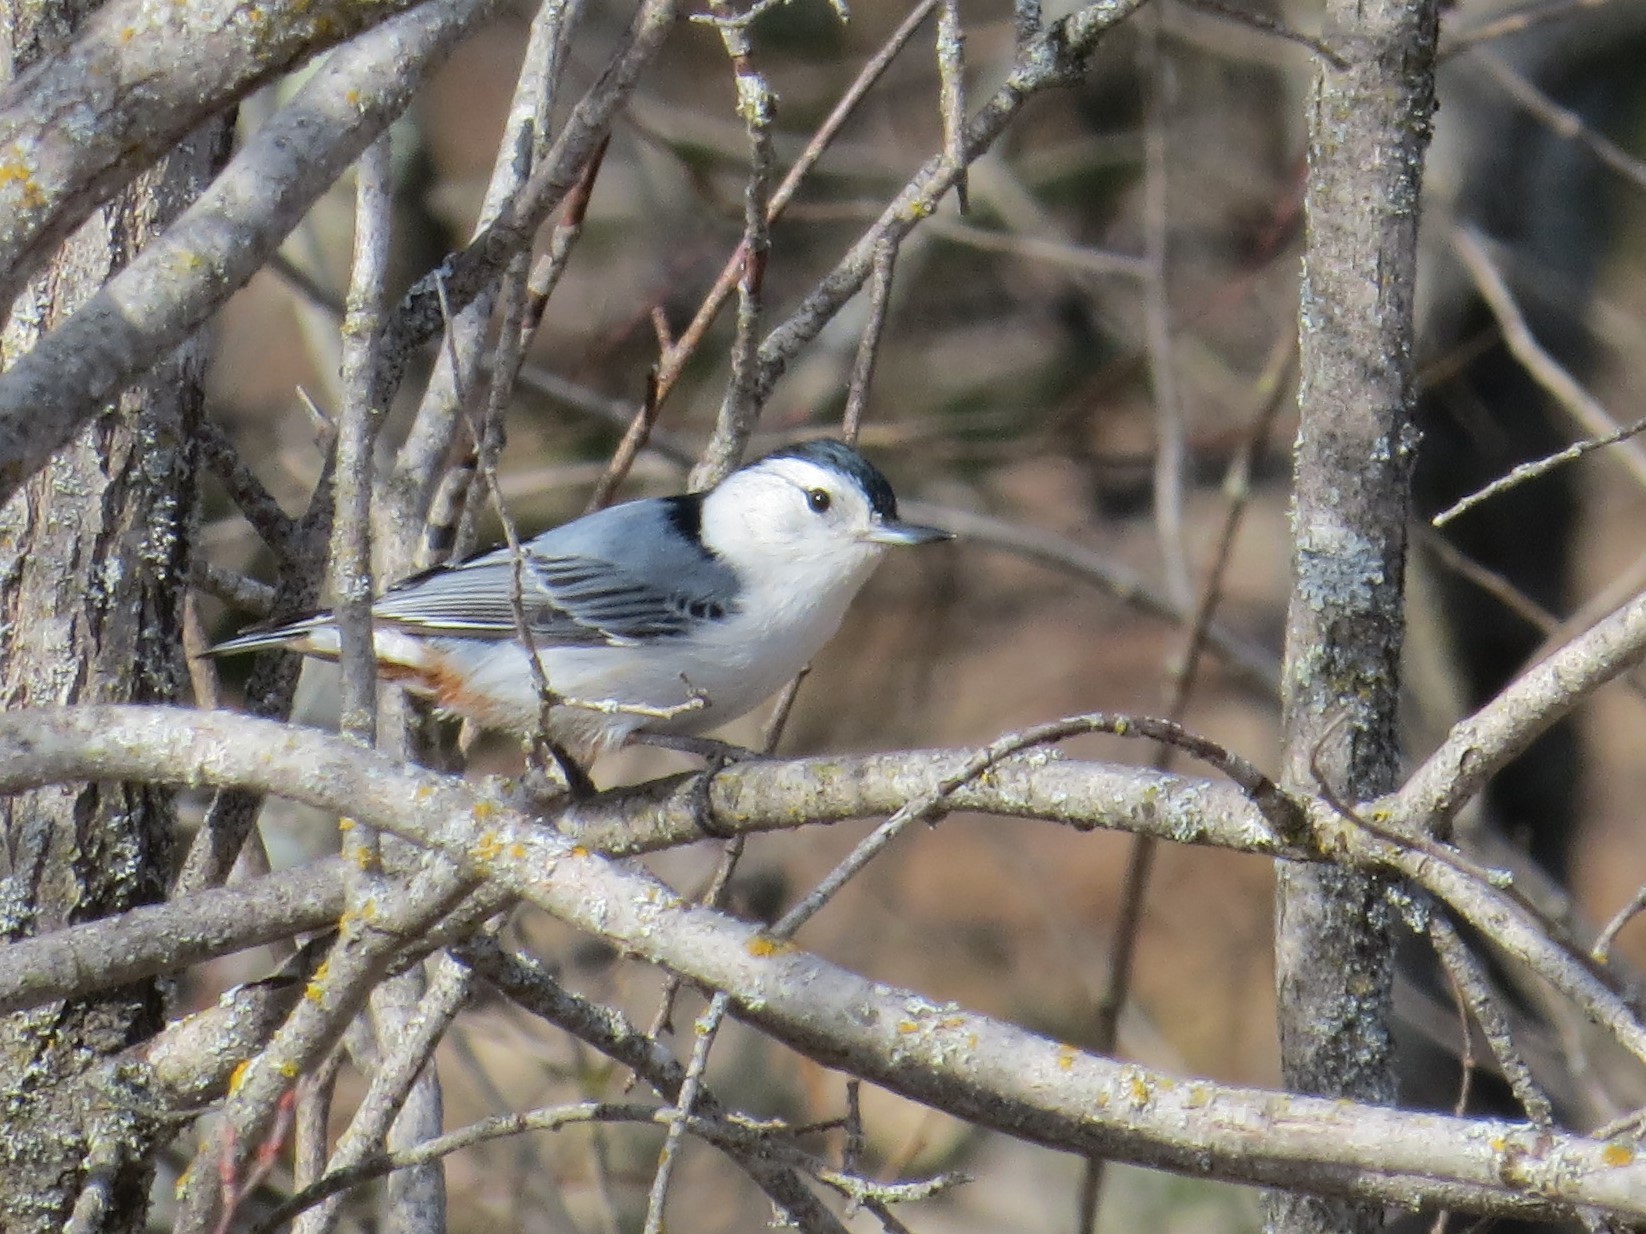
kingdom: Animalia
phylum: Chordata
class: Aves
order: Passeriformes
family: Sittidae
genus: Sitta
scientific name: Sitta carolinensis
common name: White-breasted nuthatch
